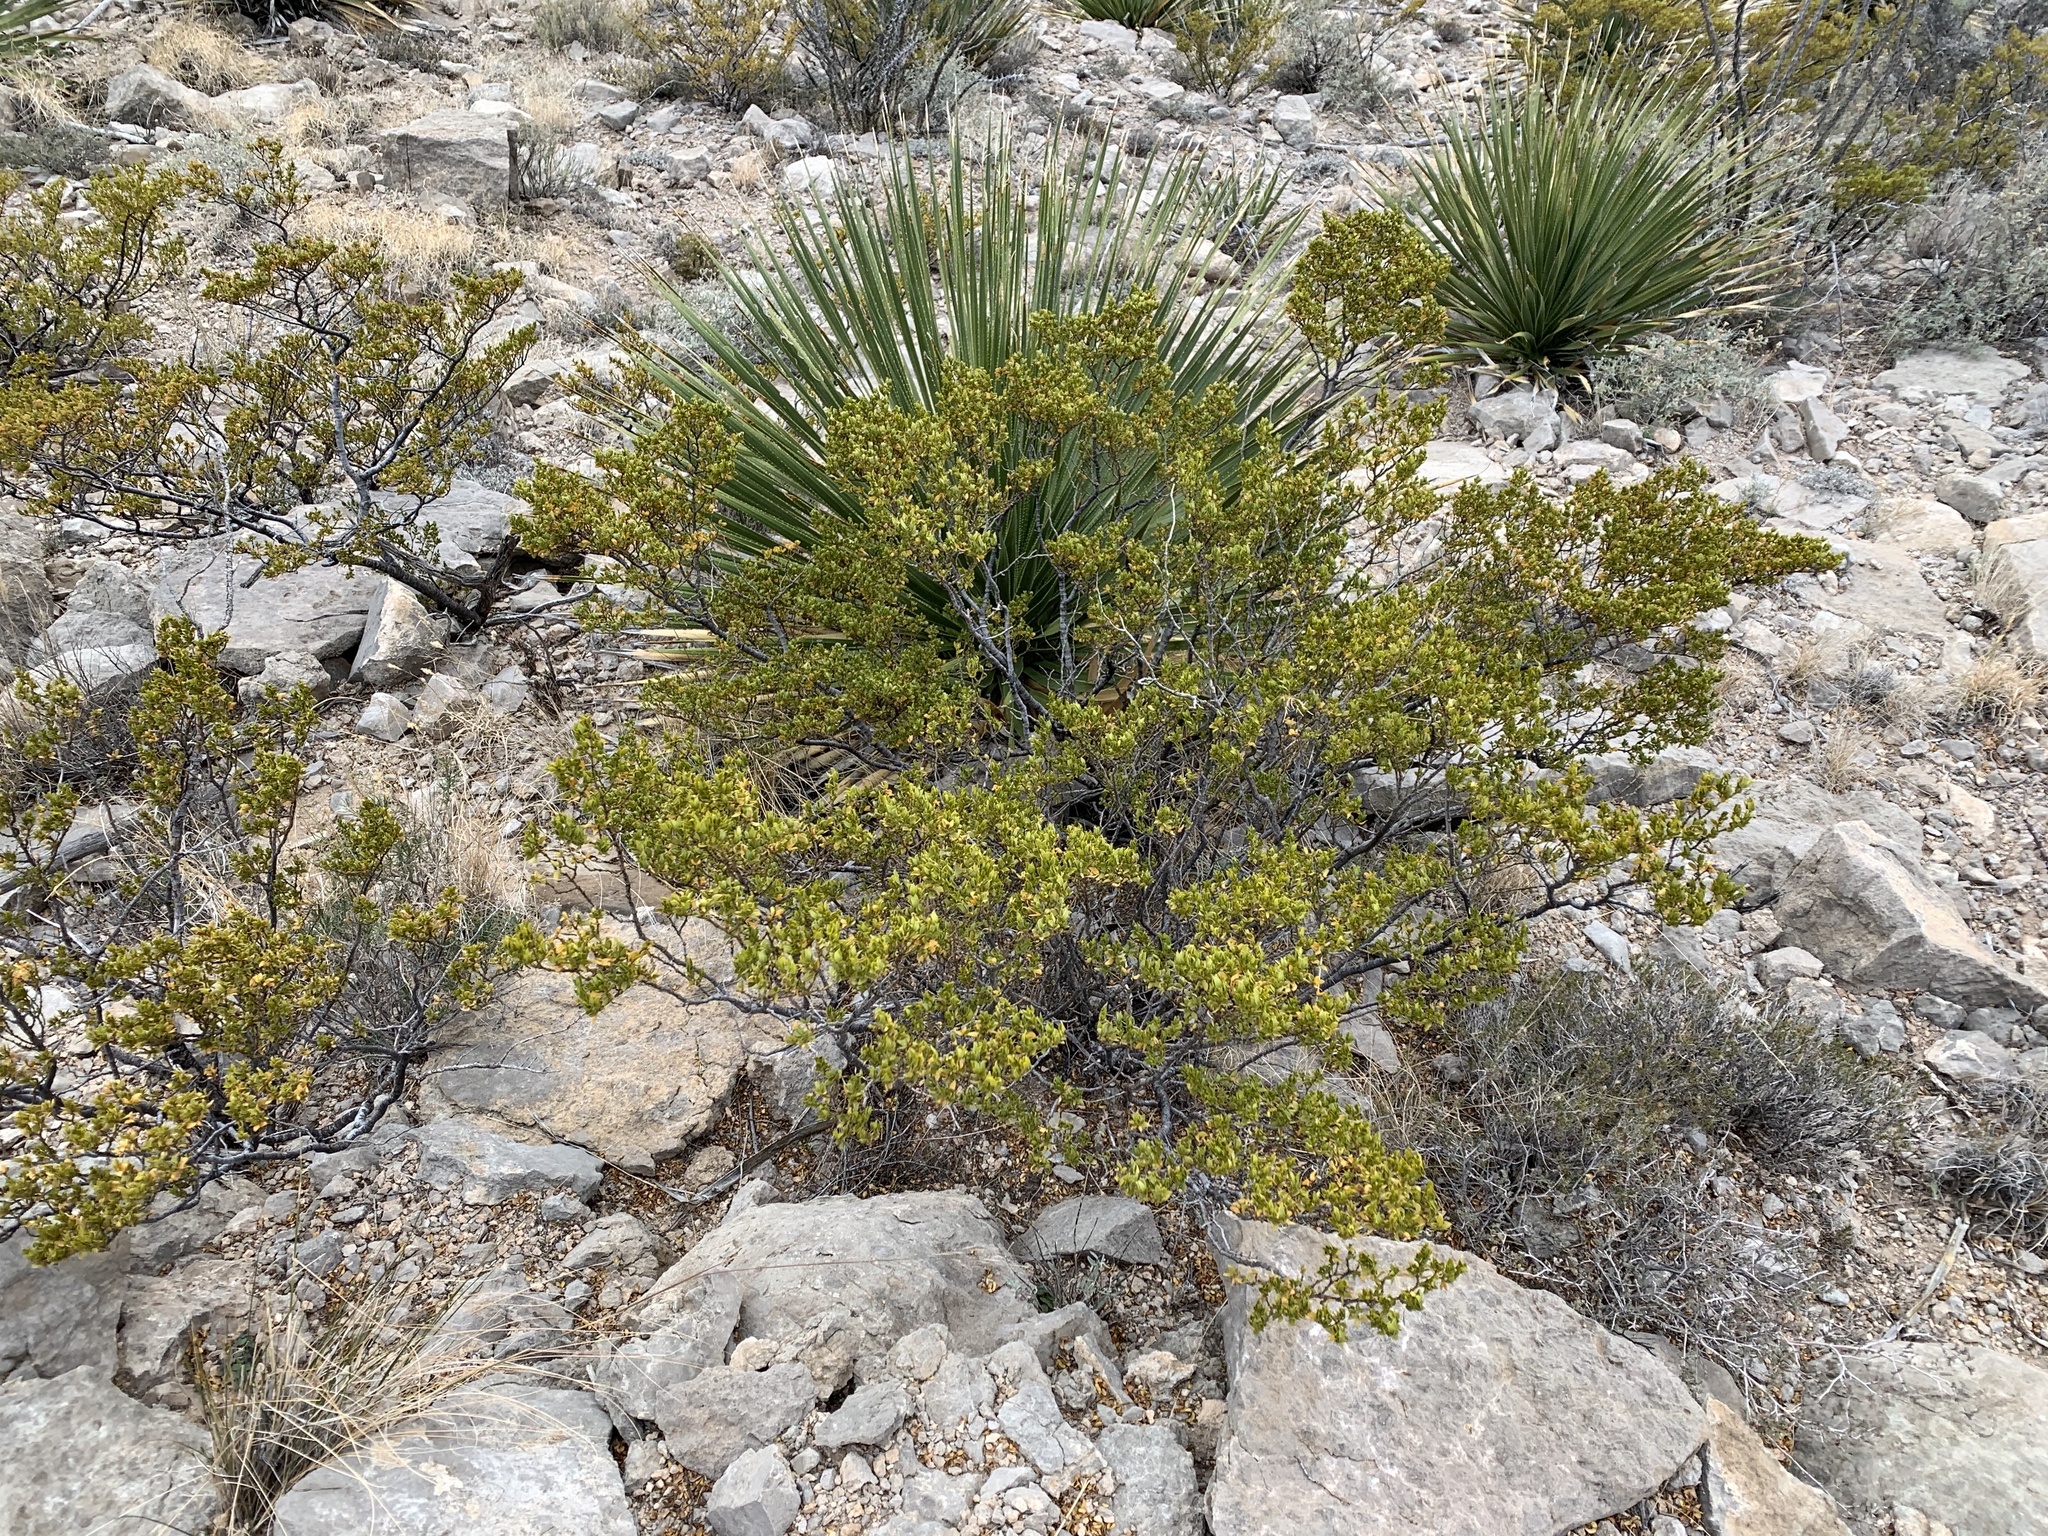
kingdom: Plantae
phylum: Tracheophyta
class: Magnoliopsida
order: Zygophyllales
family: Zygophyllaceae
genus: Larrea
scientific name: Larrea tridentata
